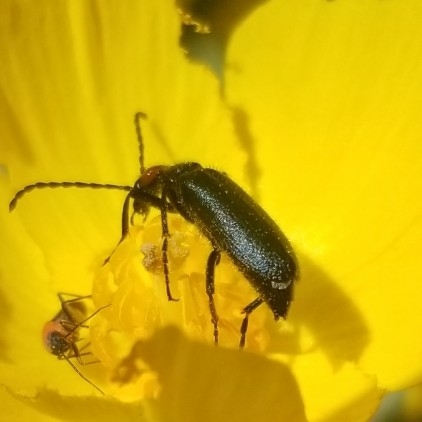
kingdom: Animalia
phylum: Arthropoda
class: Insecta
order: Coleoptera
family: Meloidae
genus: Lytta
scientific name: Lytta auriculata
